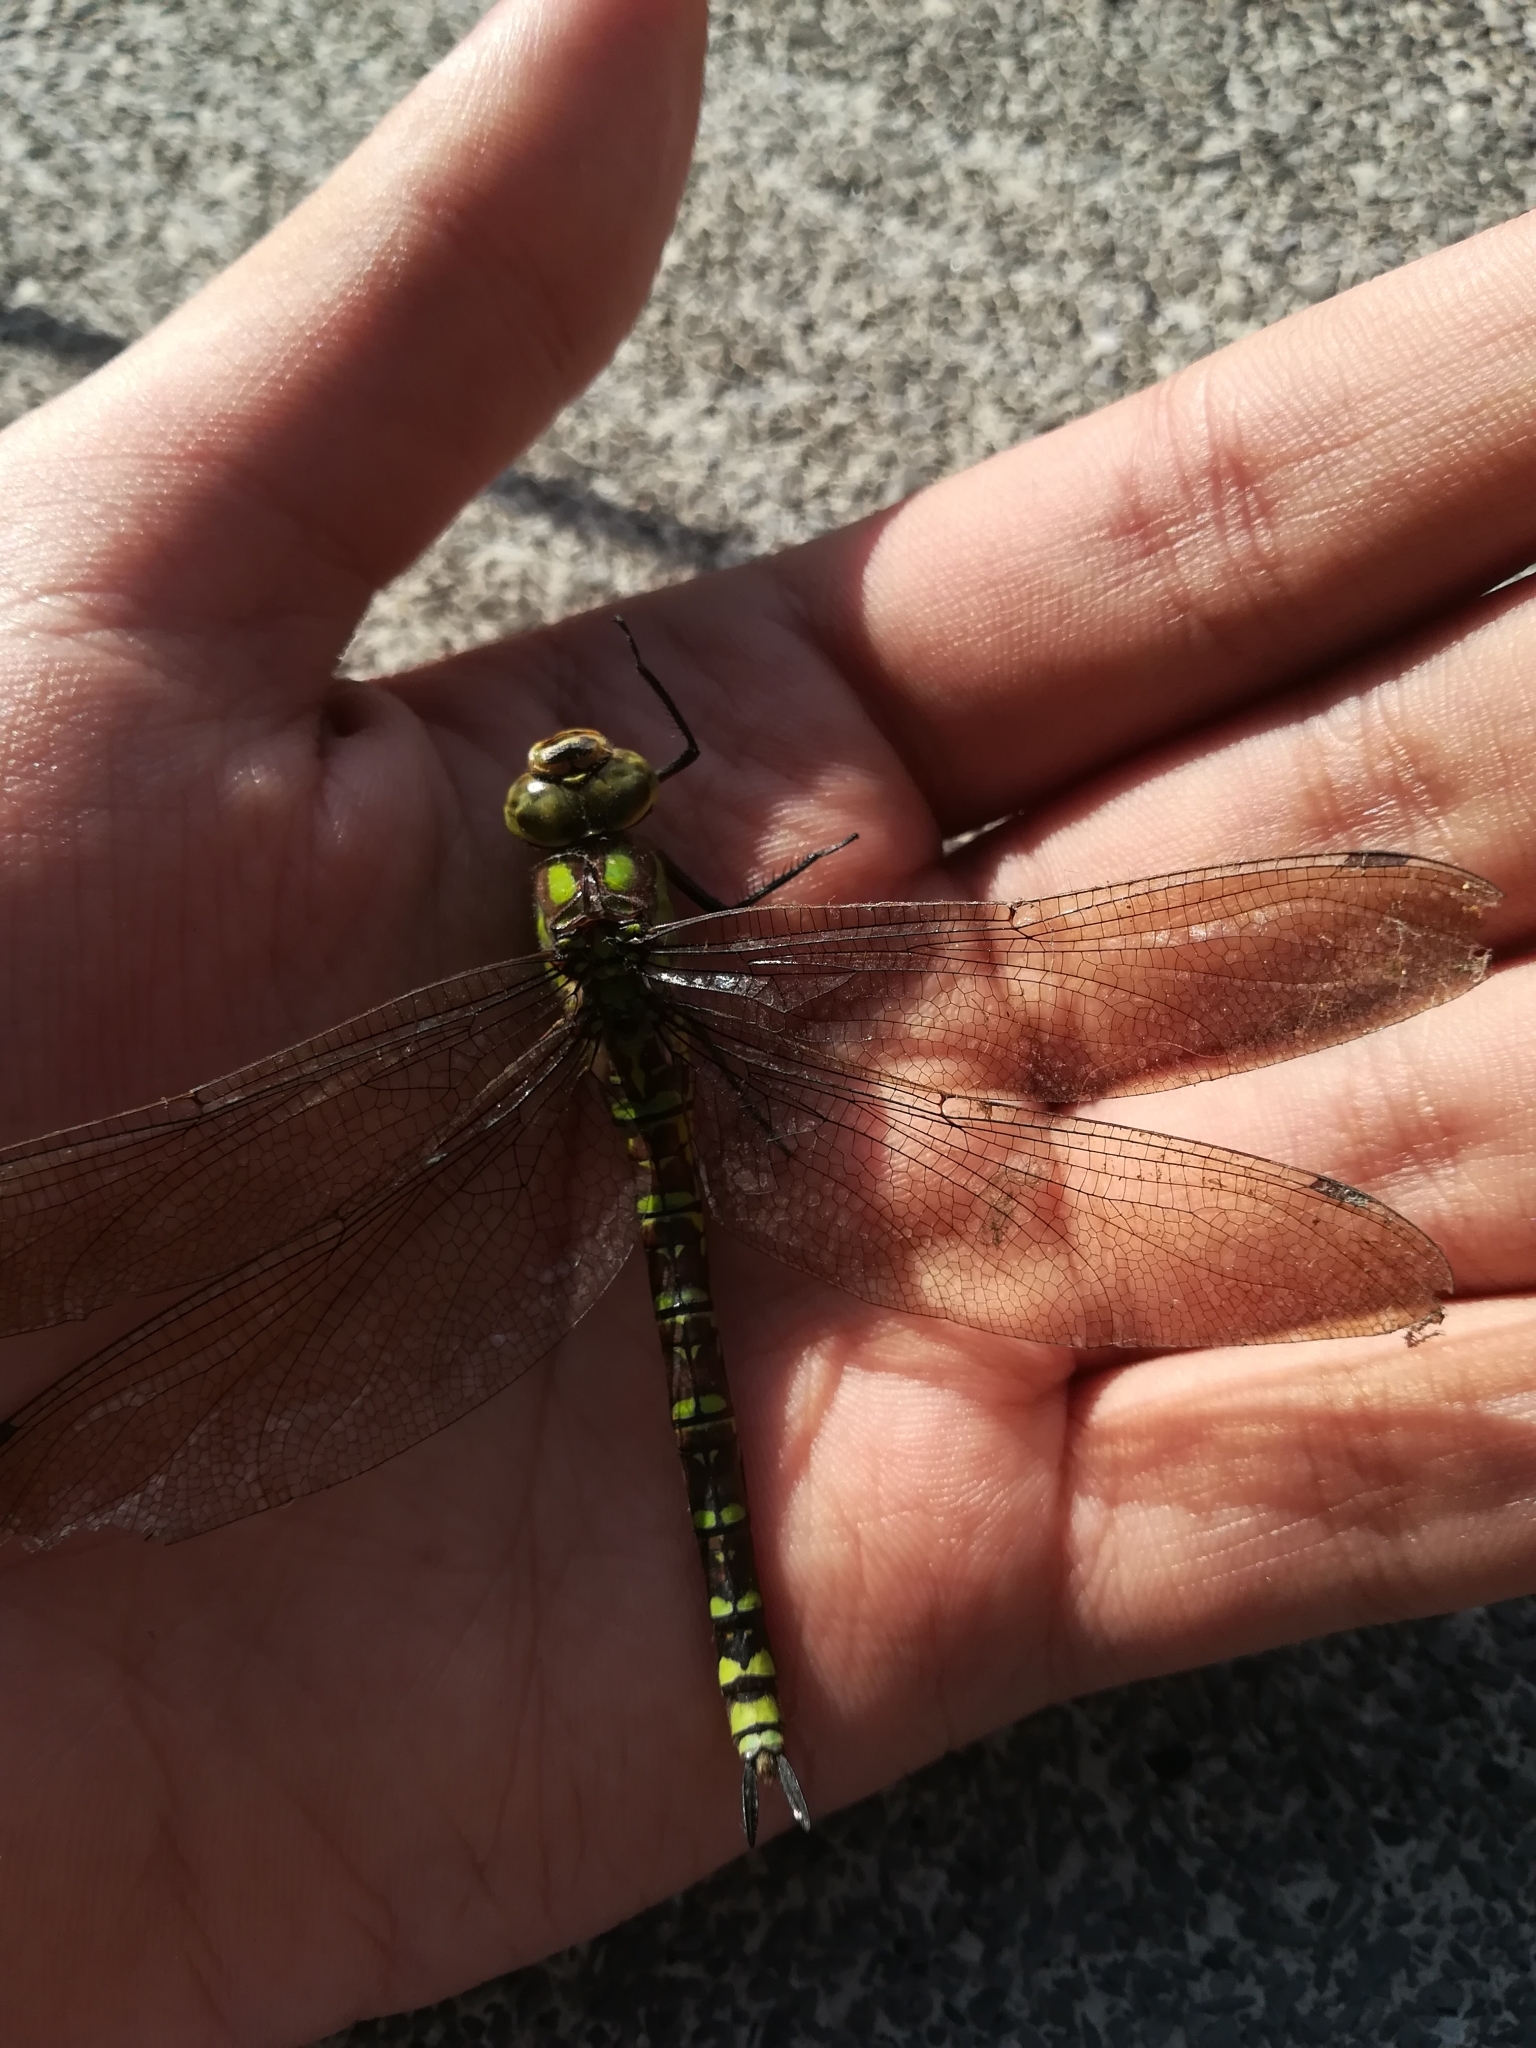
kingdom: Animalia
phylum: Arthropoda
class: Insecta
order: Odonata
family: Aeshnidae
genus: Aeshna
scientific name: Aeshna cyanea
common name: Southern hawker
